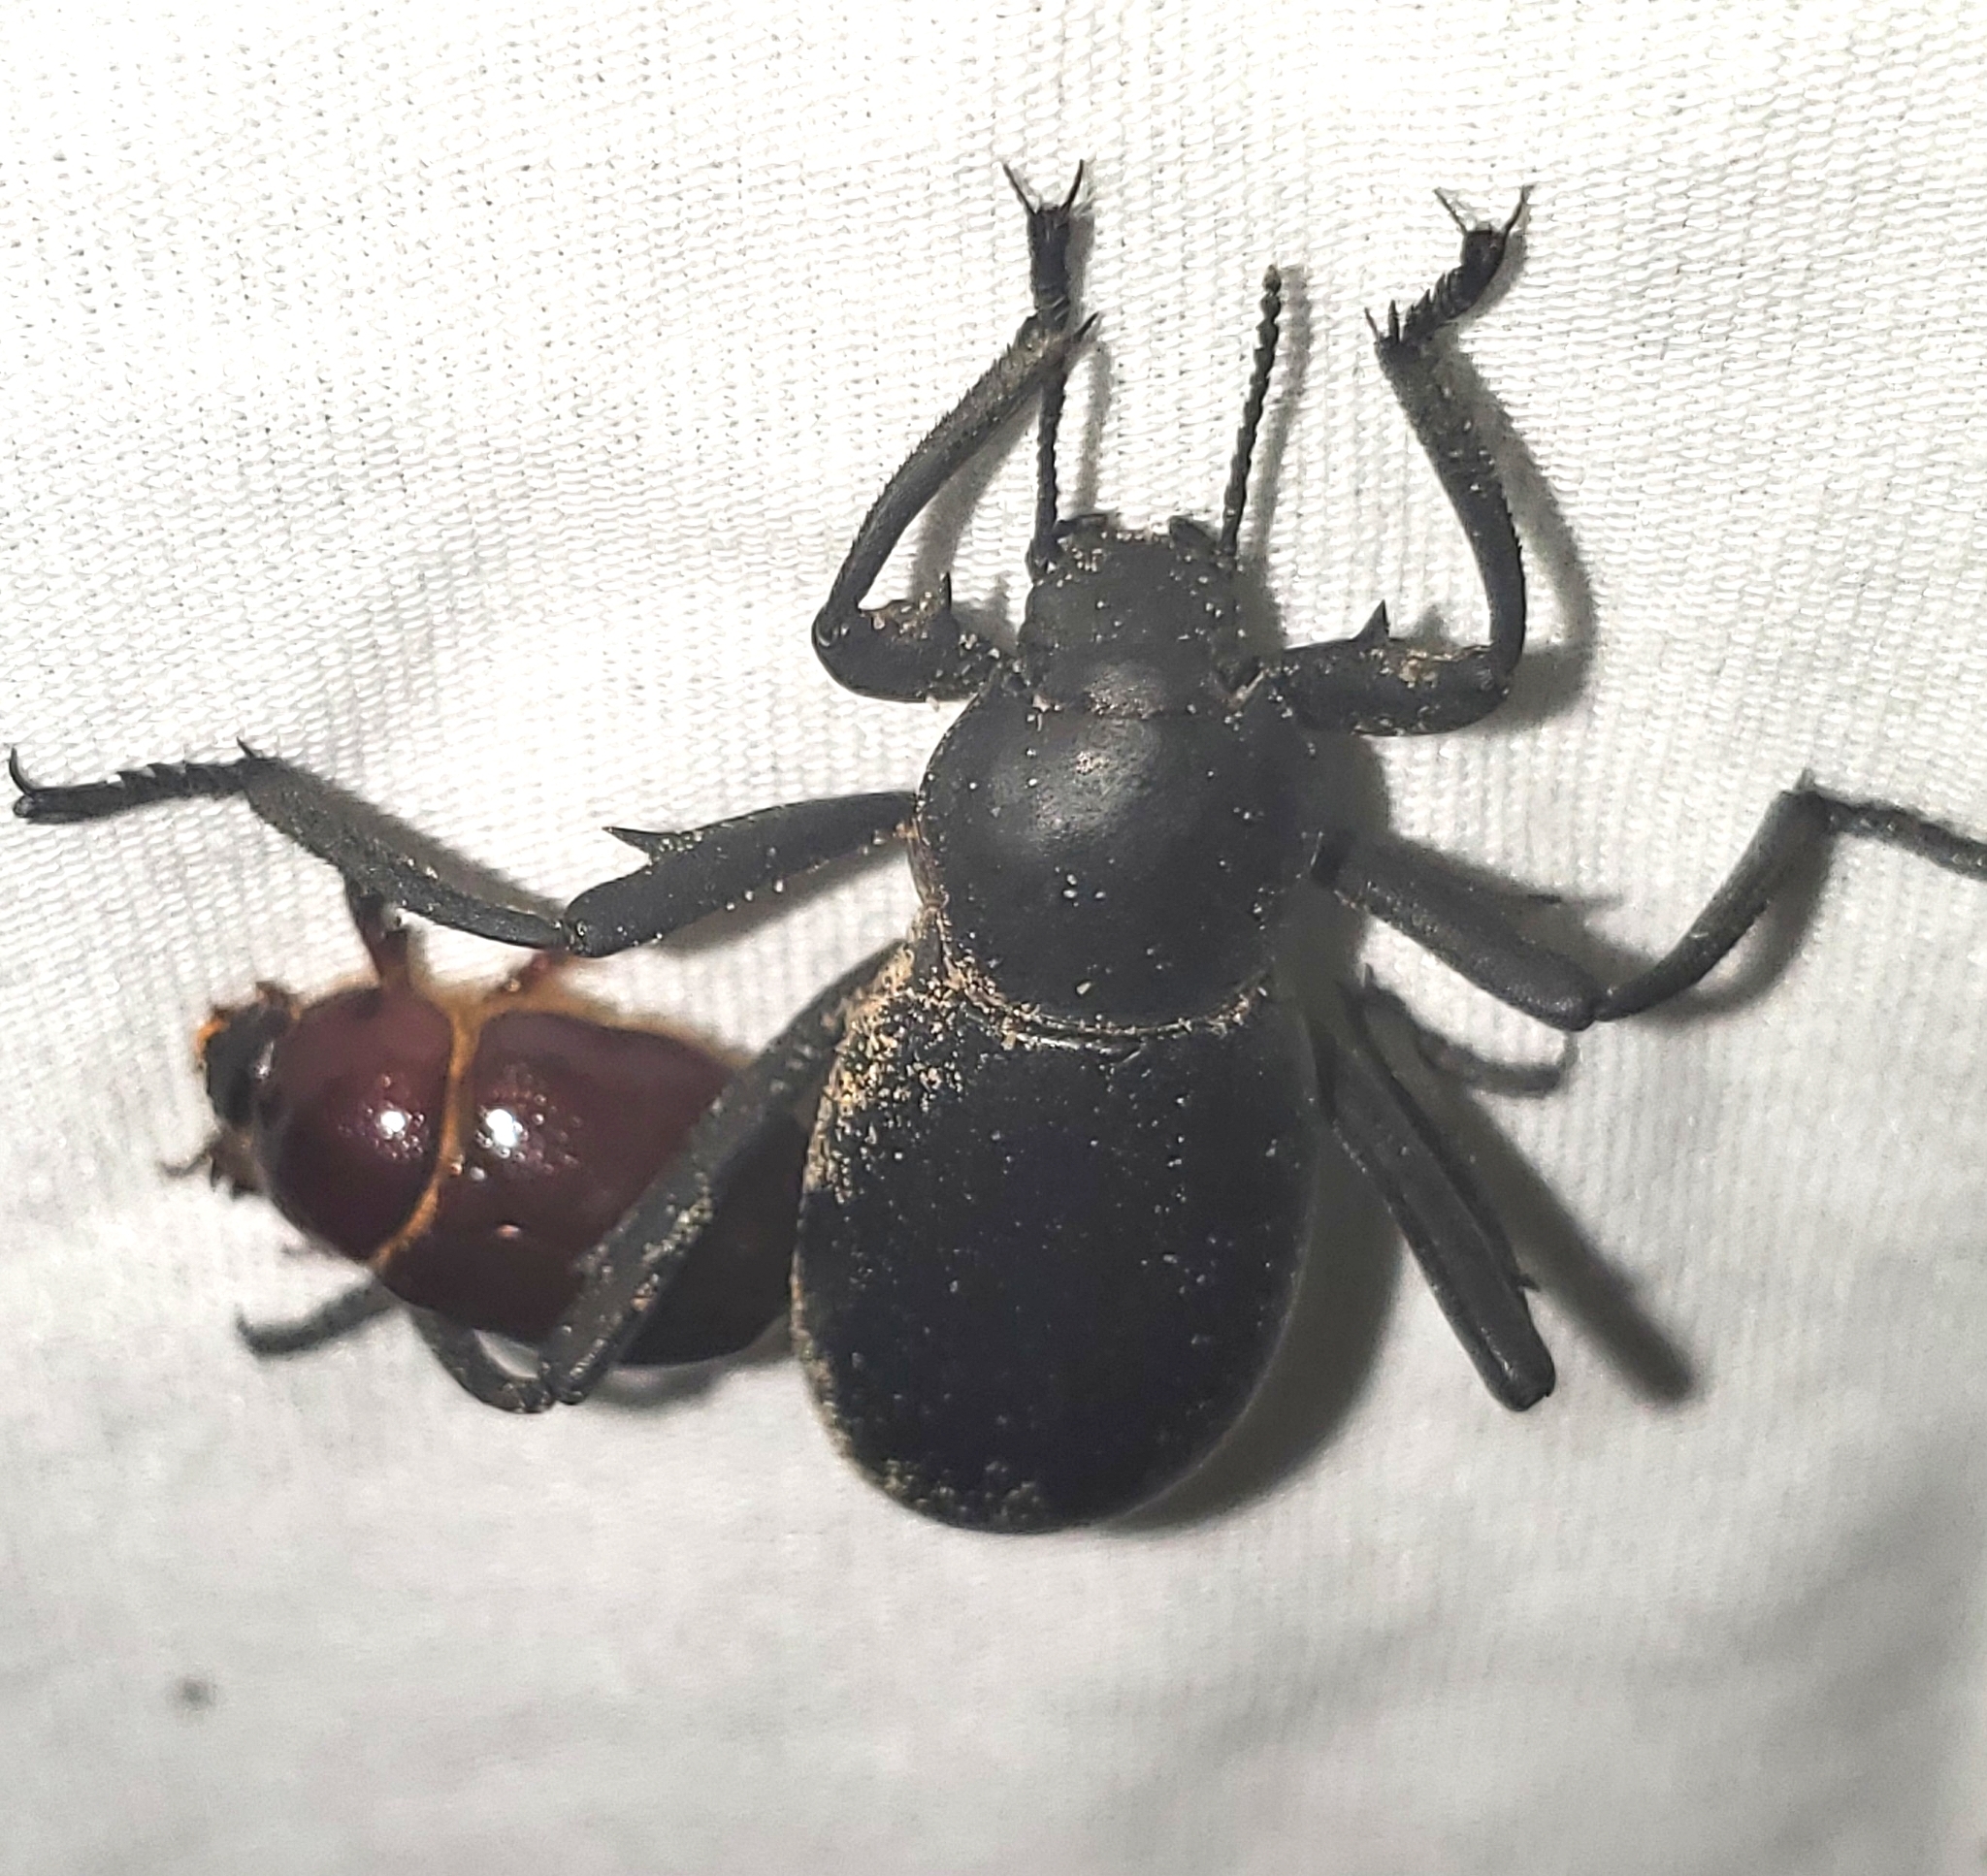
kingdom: Animalia
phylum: Arthropoda
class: Insecta
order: Coleoptera
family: Tenebrionidae
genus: Eleodes
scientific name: Eleodes armata
